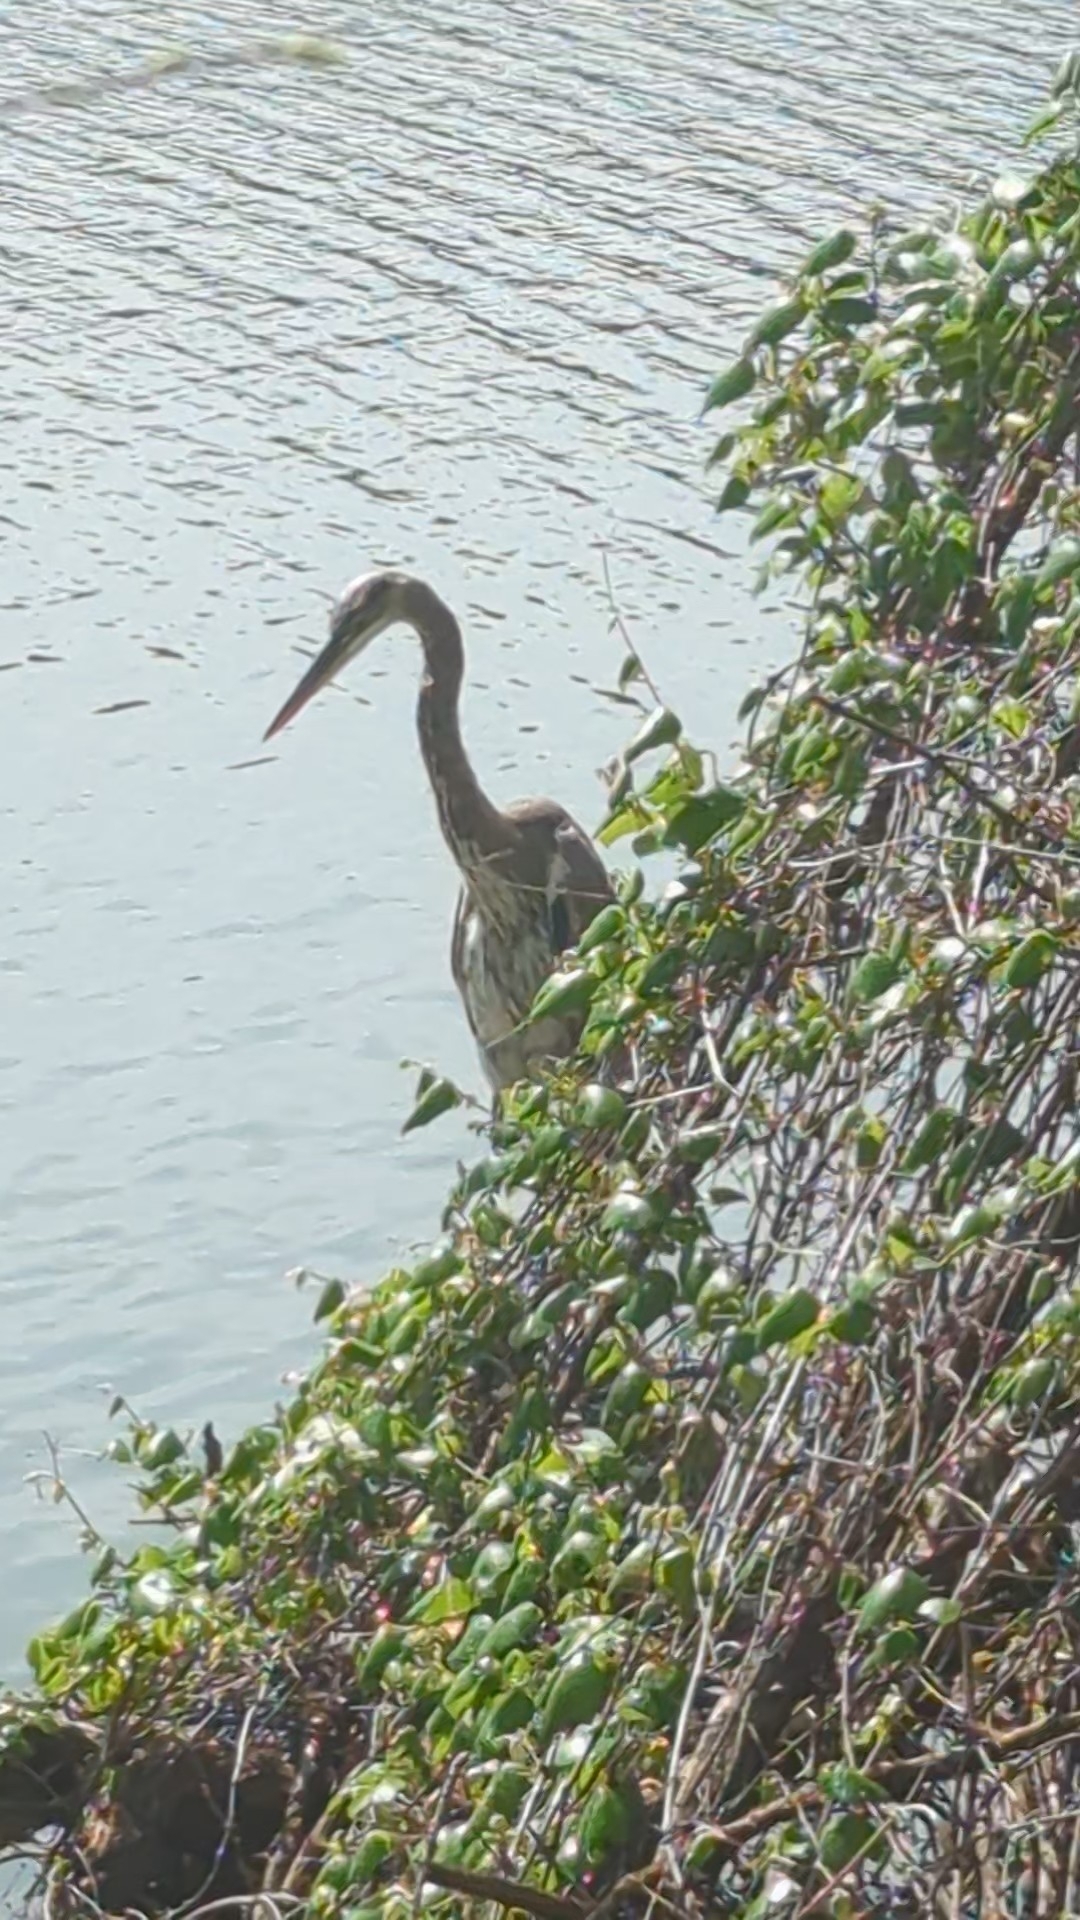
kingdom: Animalia
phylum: Chordata
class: Aves
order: Pelecaniformes
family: Ardeidae
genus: Ardea
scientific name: Ardea herodias
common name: Great blue heron
